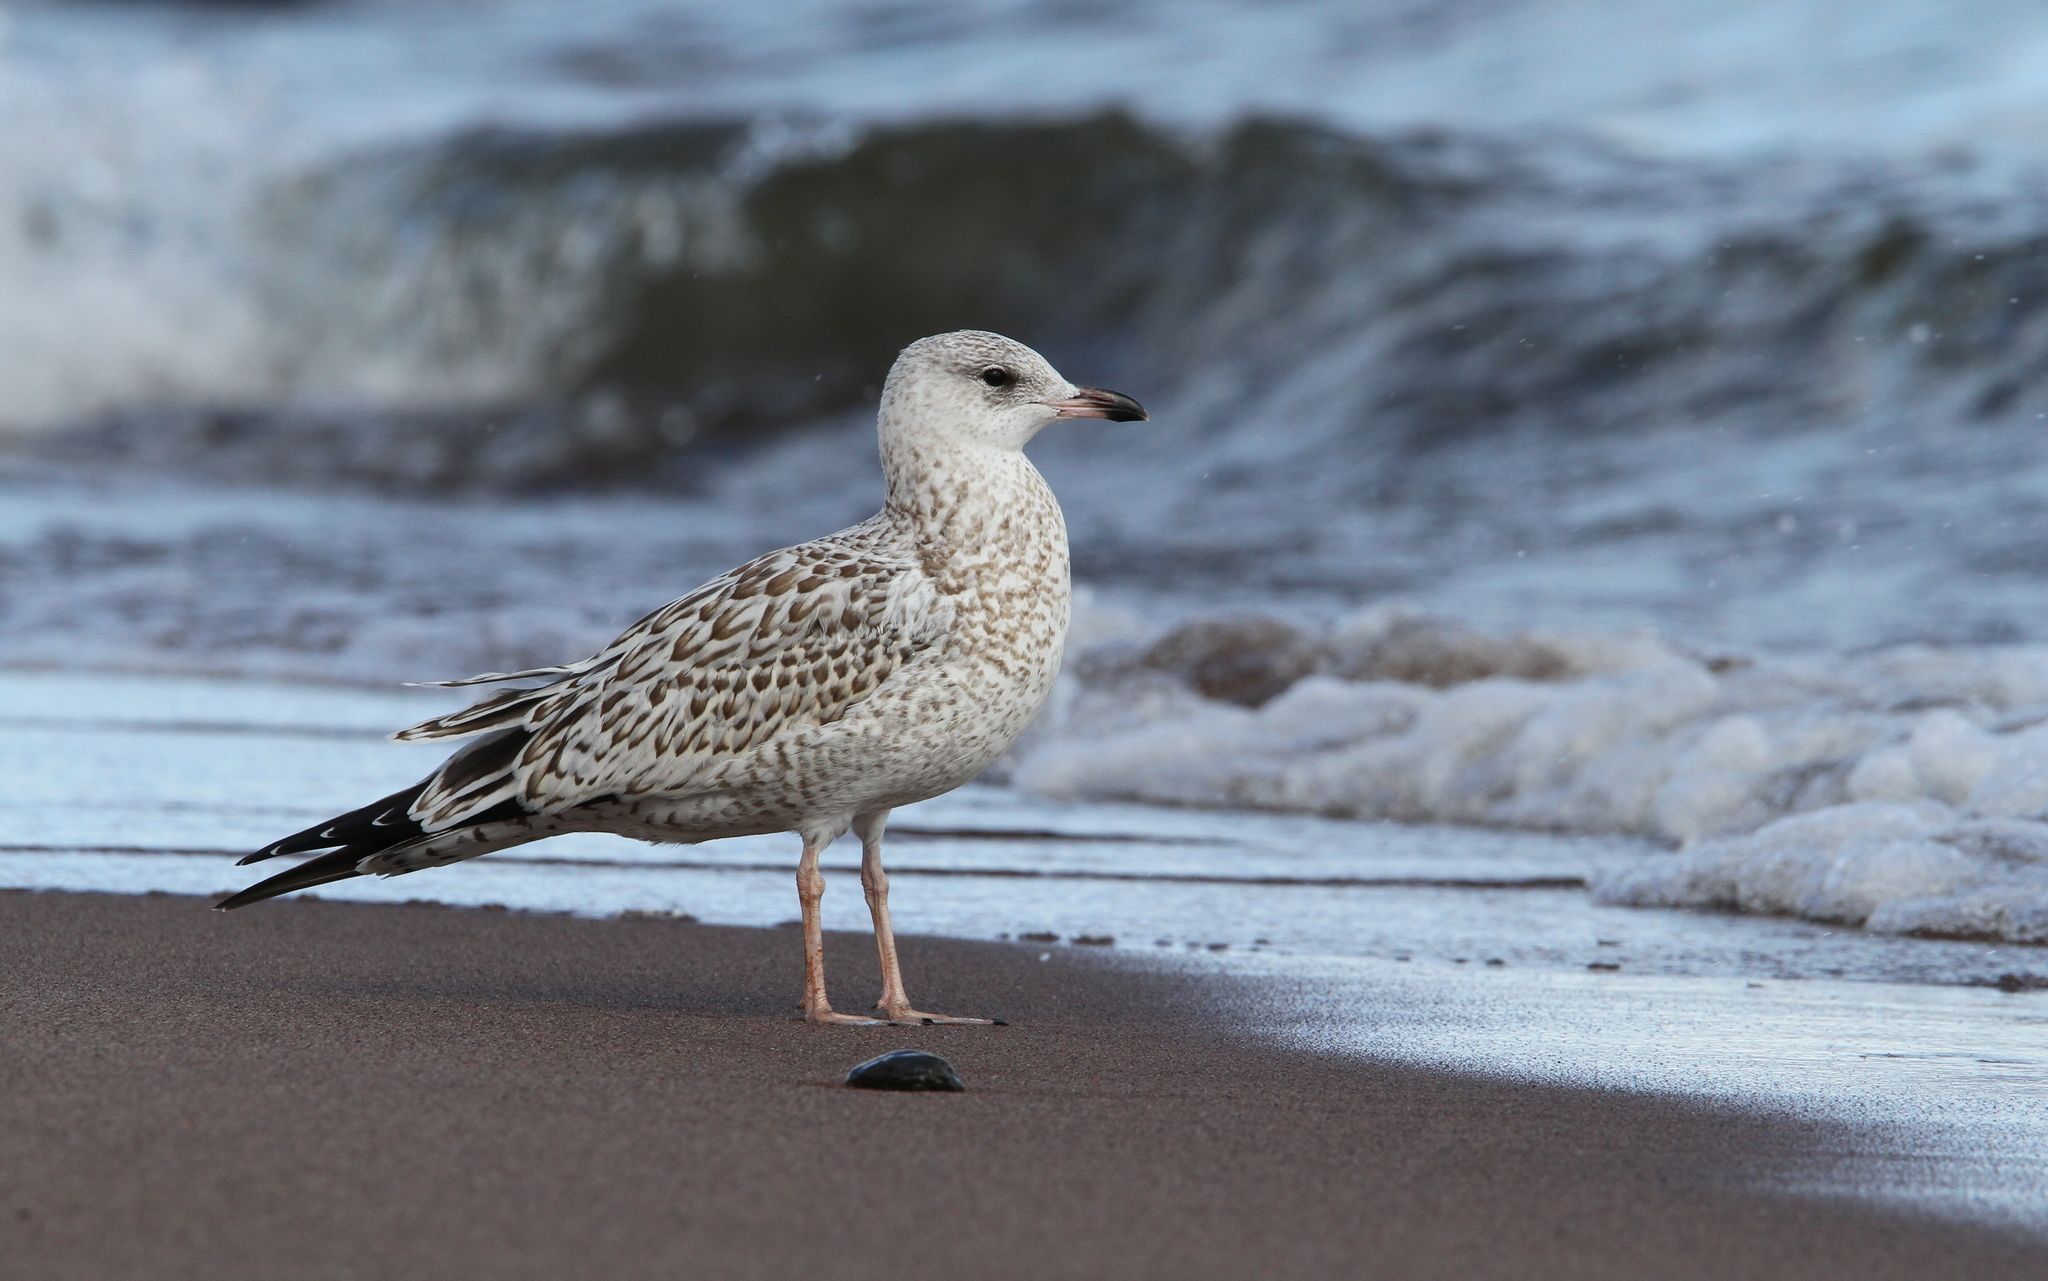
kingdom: Animalia
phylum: Chordata
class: Aves
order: Charadriiformes
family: Laridae
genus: Larus
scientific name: Larus delawarensis
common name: Ring-billed gull
